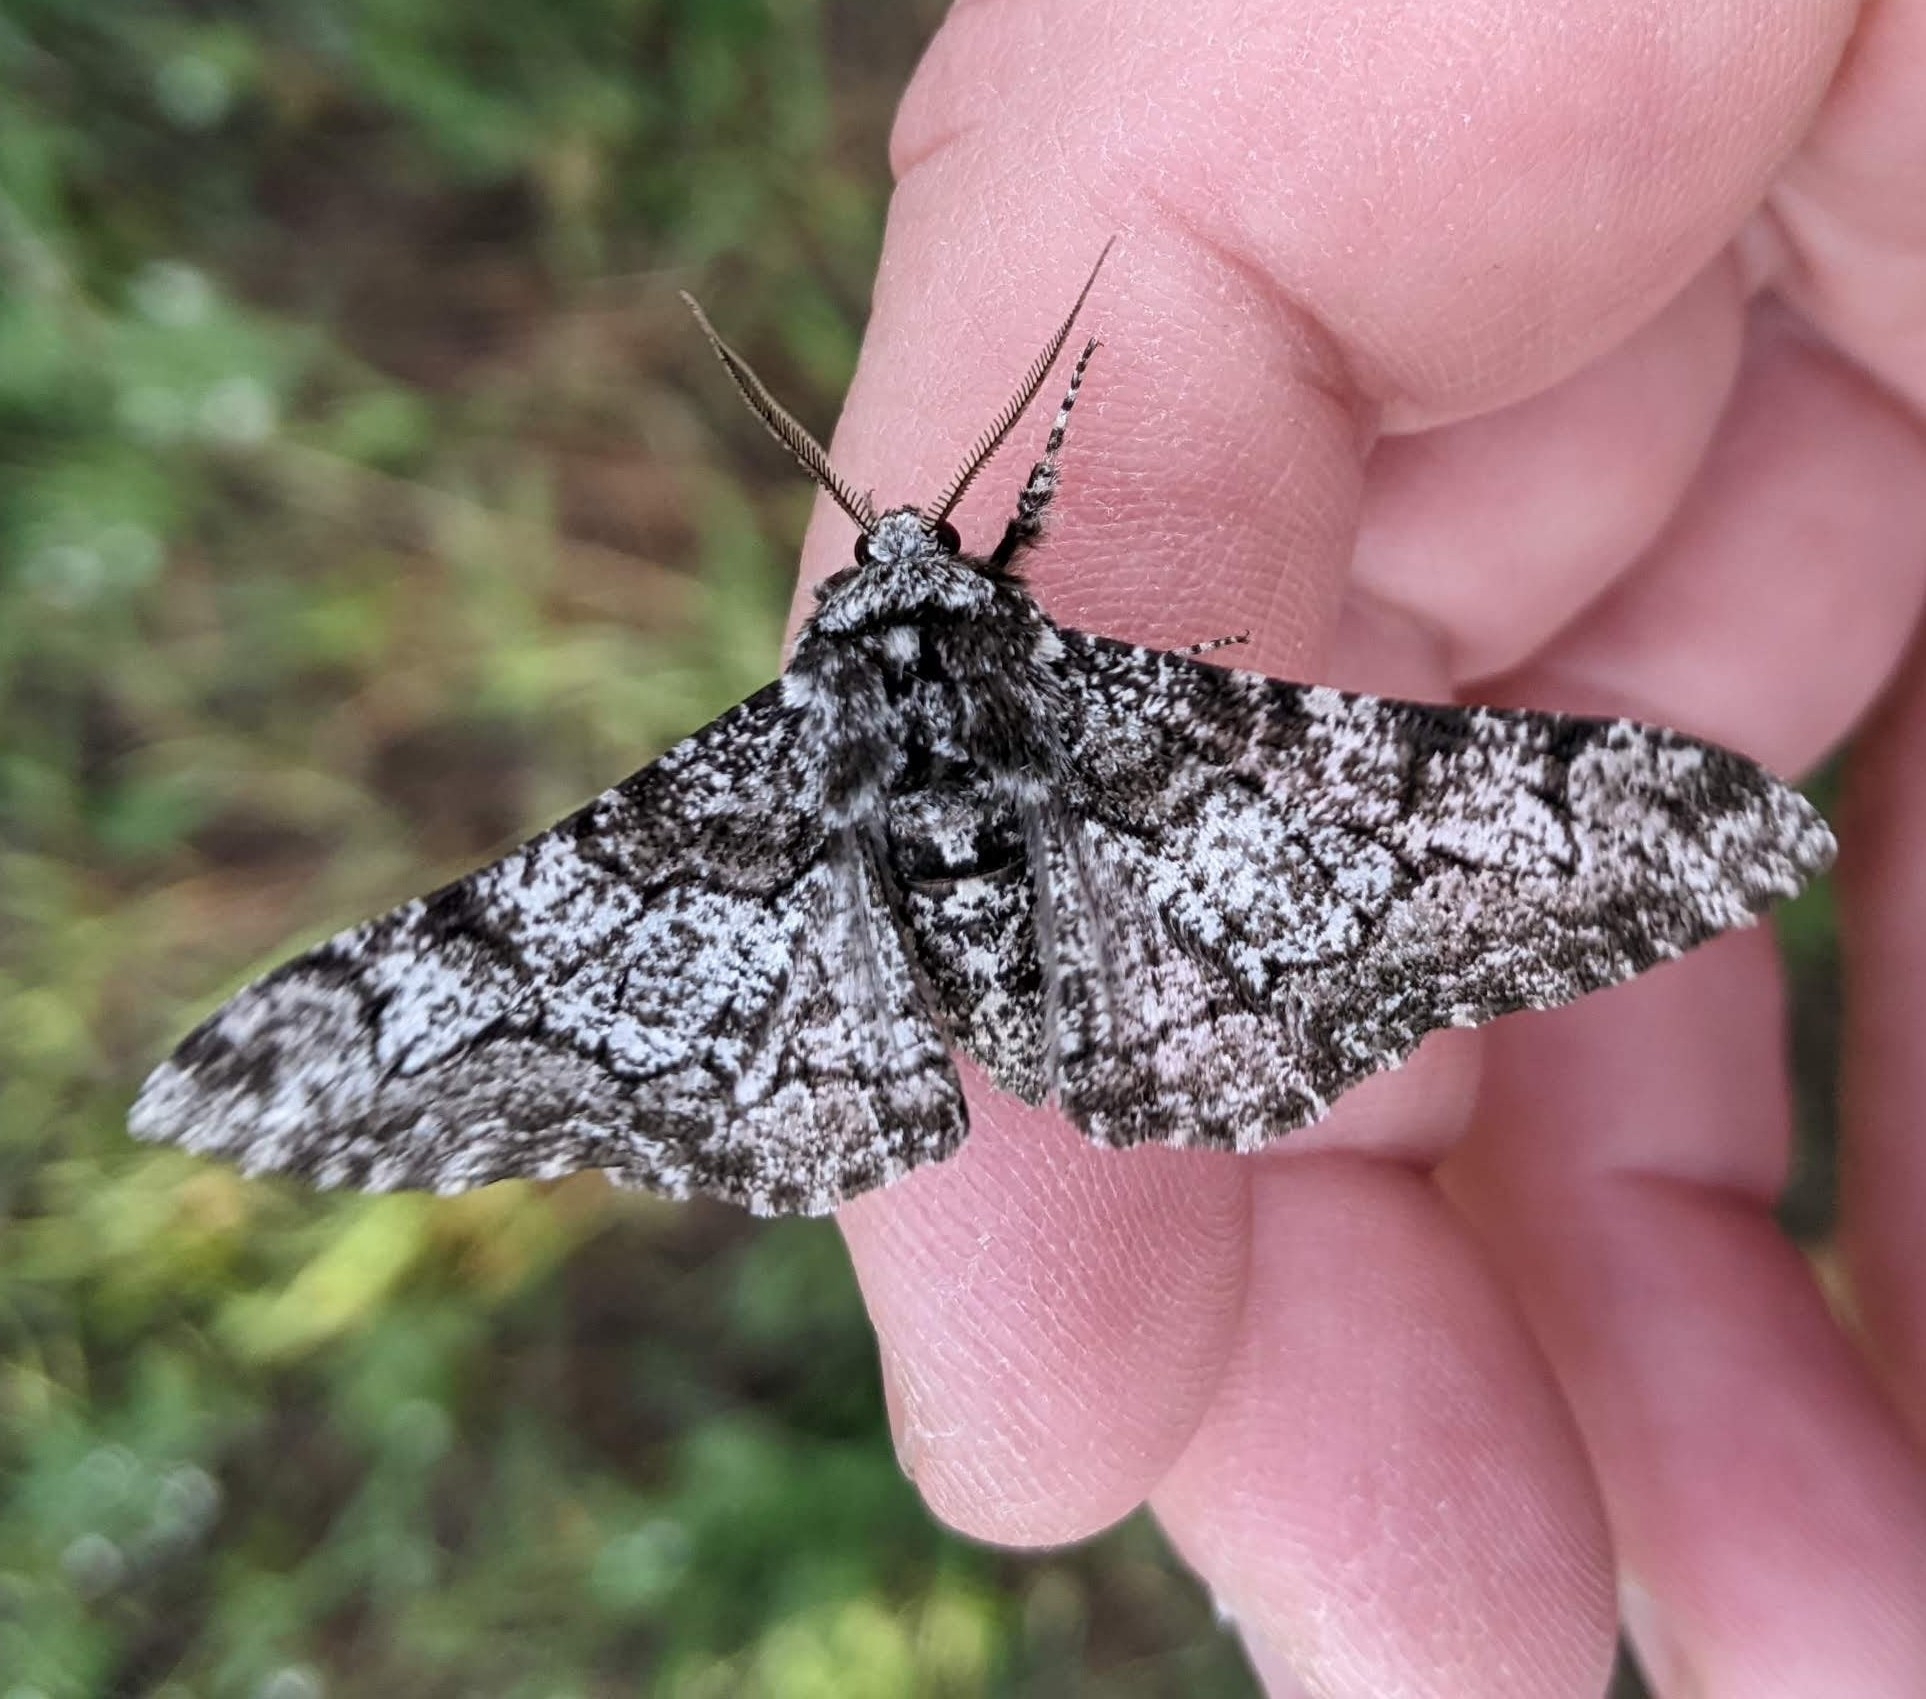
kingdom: Animalia
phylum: Arthropoda
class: Insecta
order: Lepidoptera
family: Geometridae
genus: Biston
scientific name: Biston betularia
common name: Peppered moth
